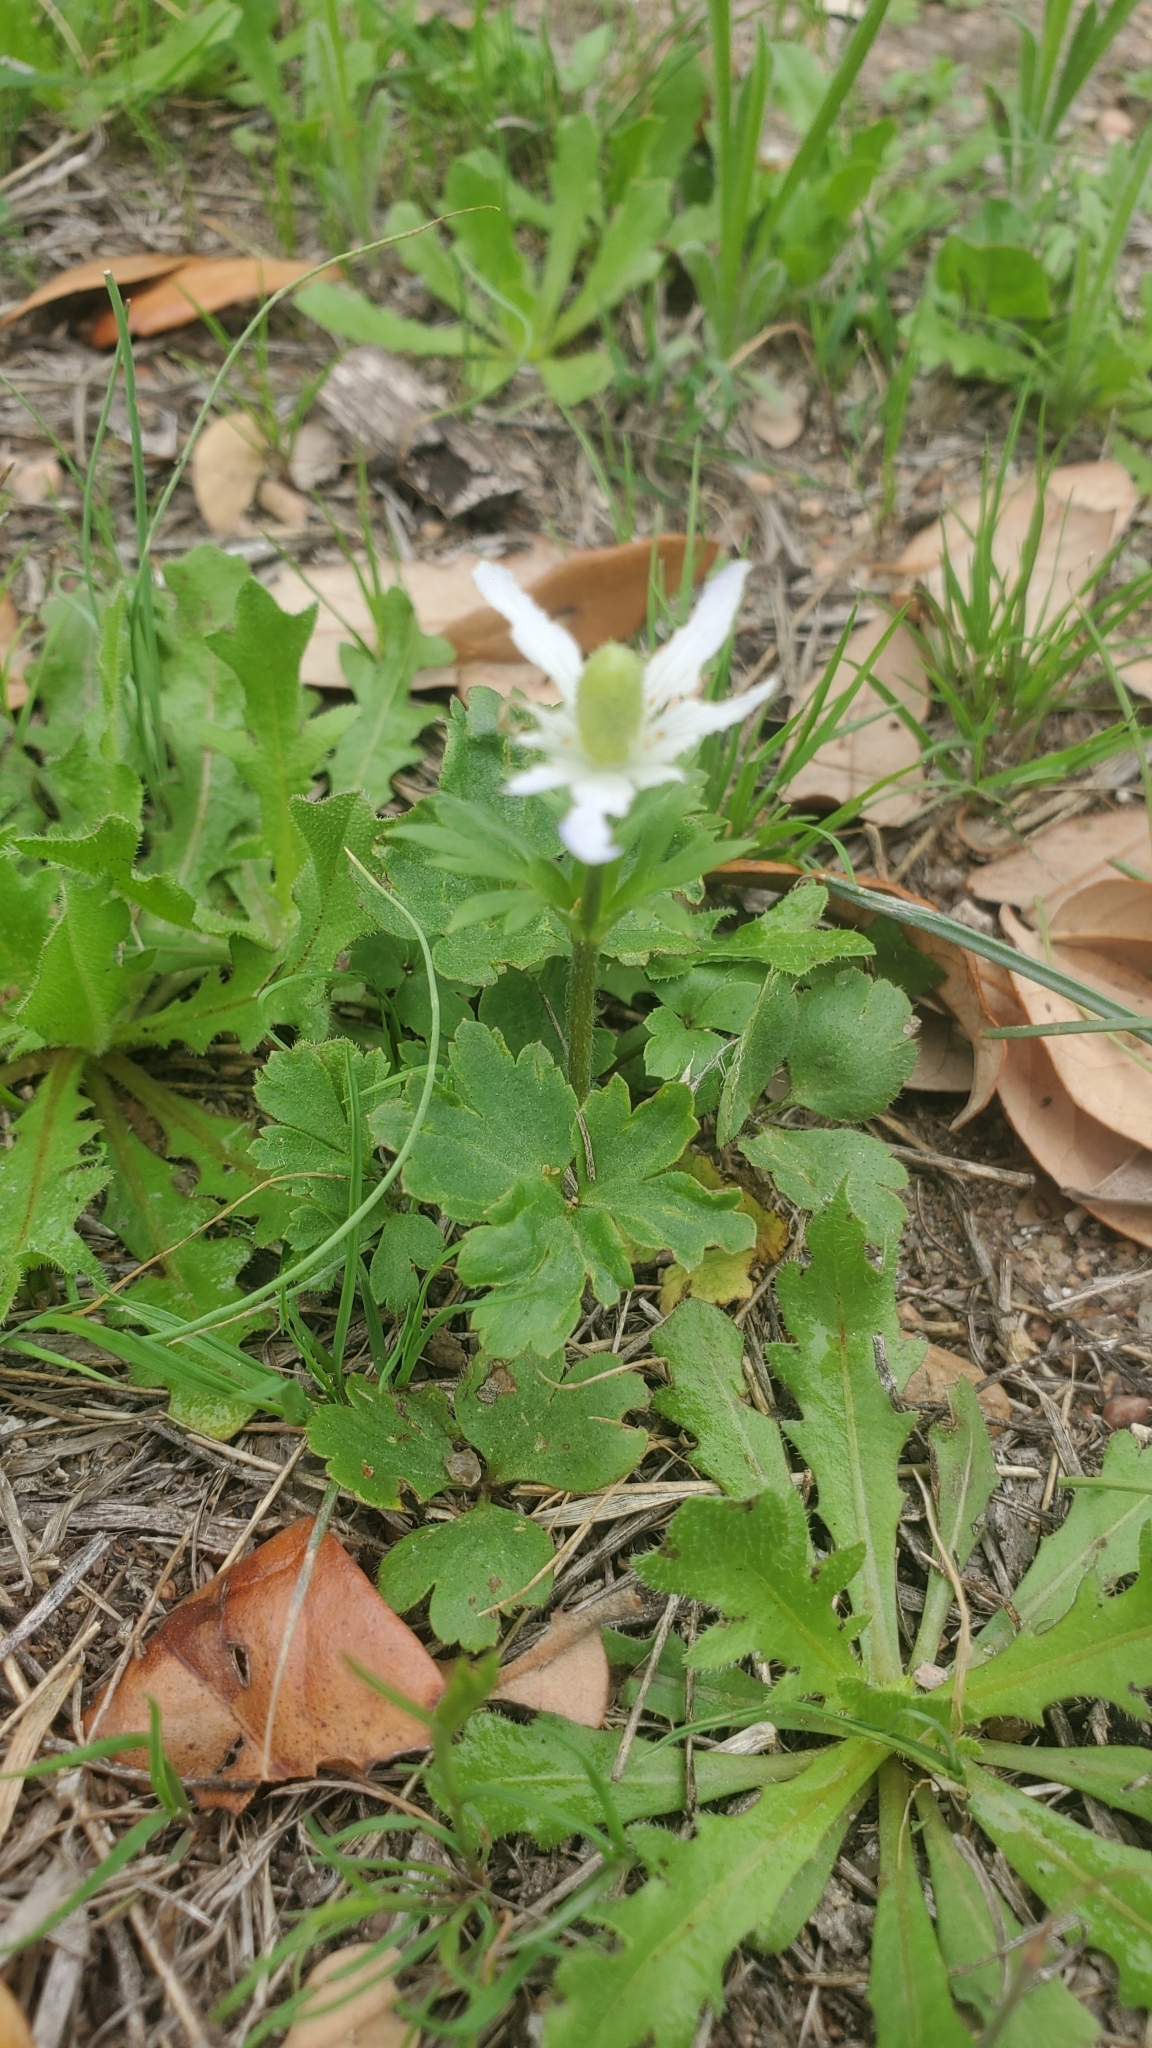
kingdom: Plantae
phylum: Tracheophyta
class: Magnoliopsida
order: Ranunculales
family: Ranunculaceae
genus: Anemone
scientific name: Anemone berlandieri
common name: Ten-petal anemone
